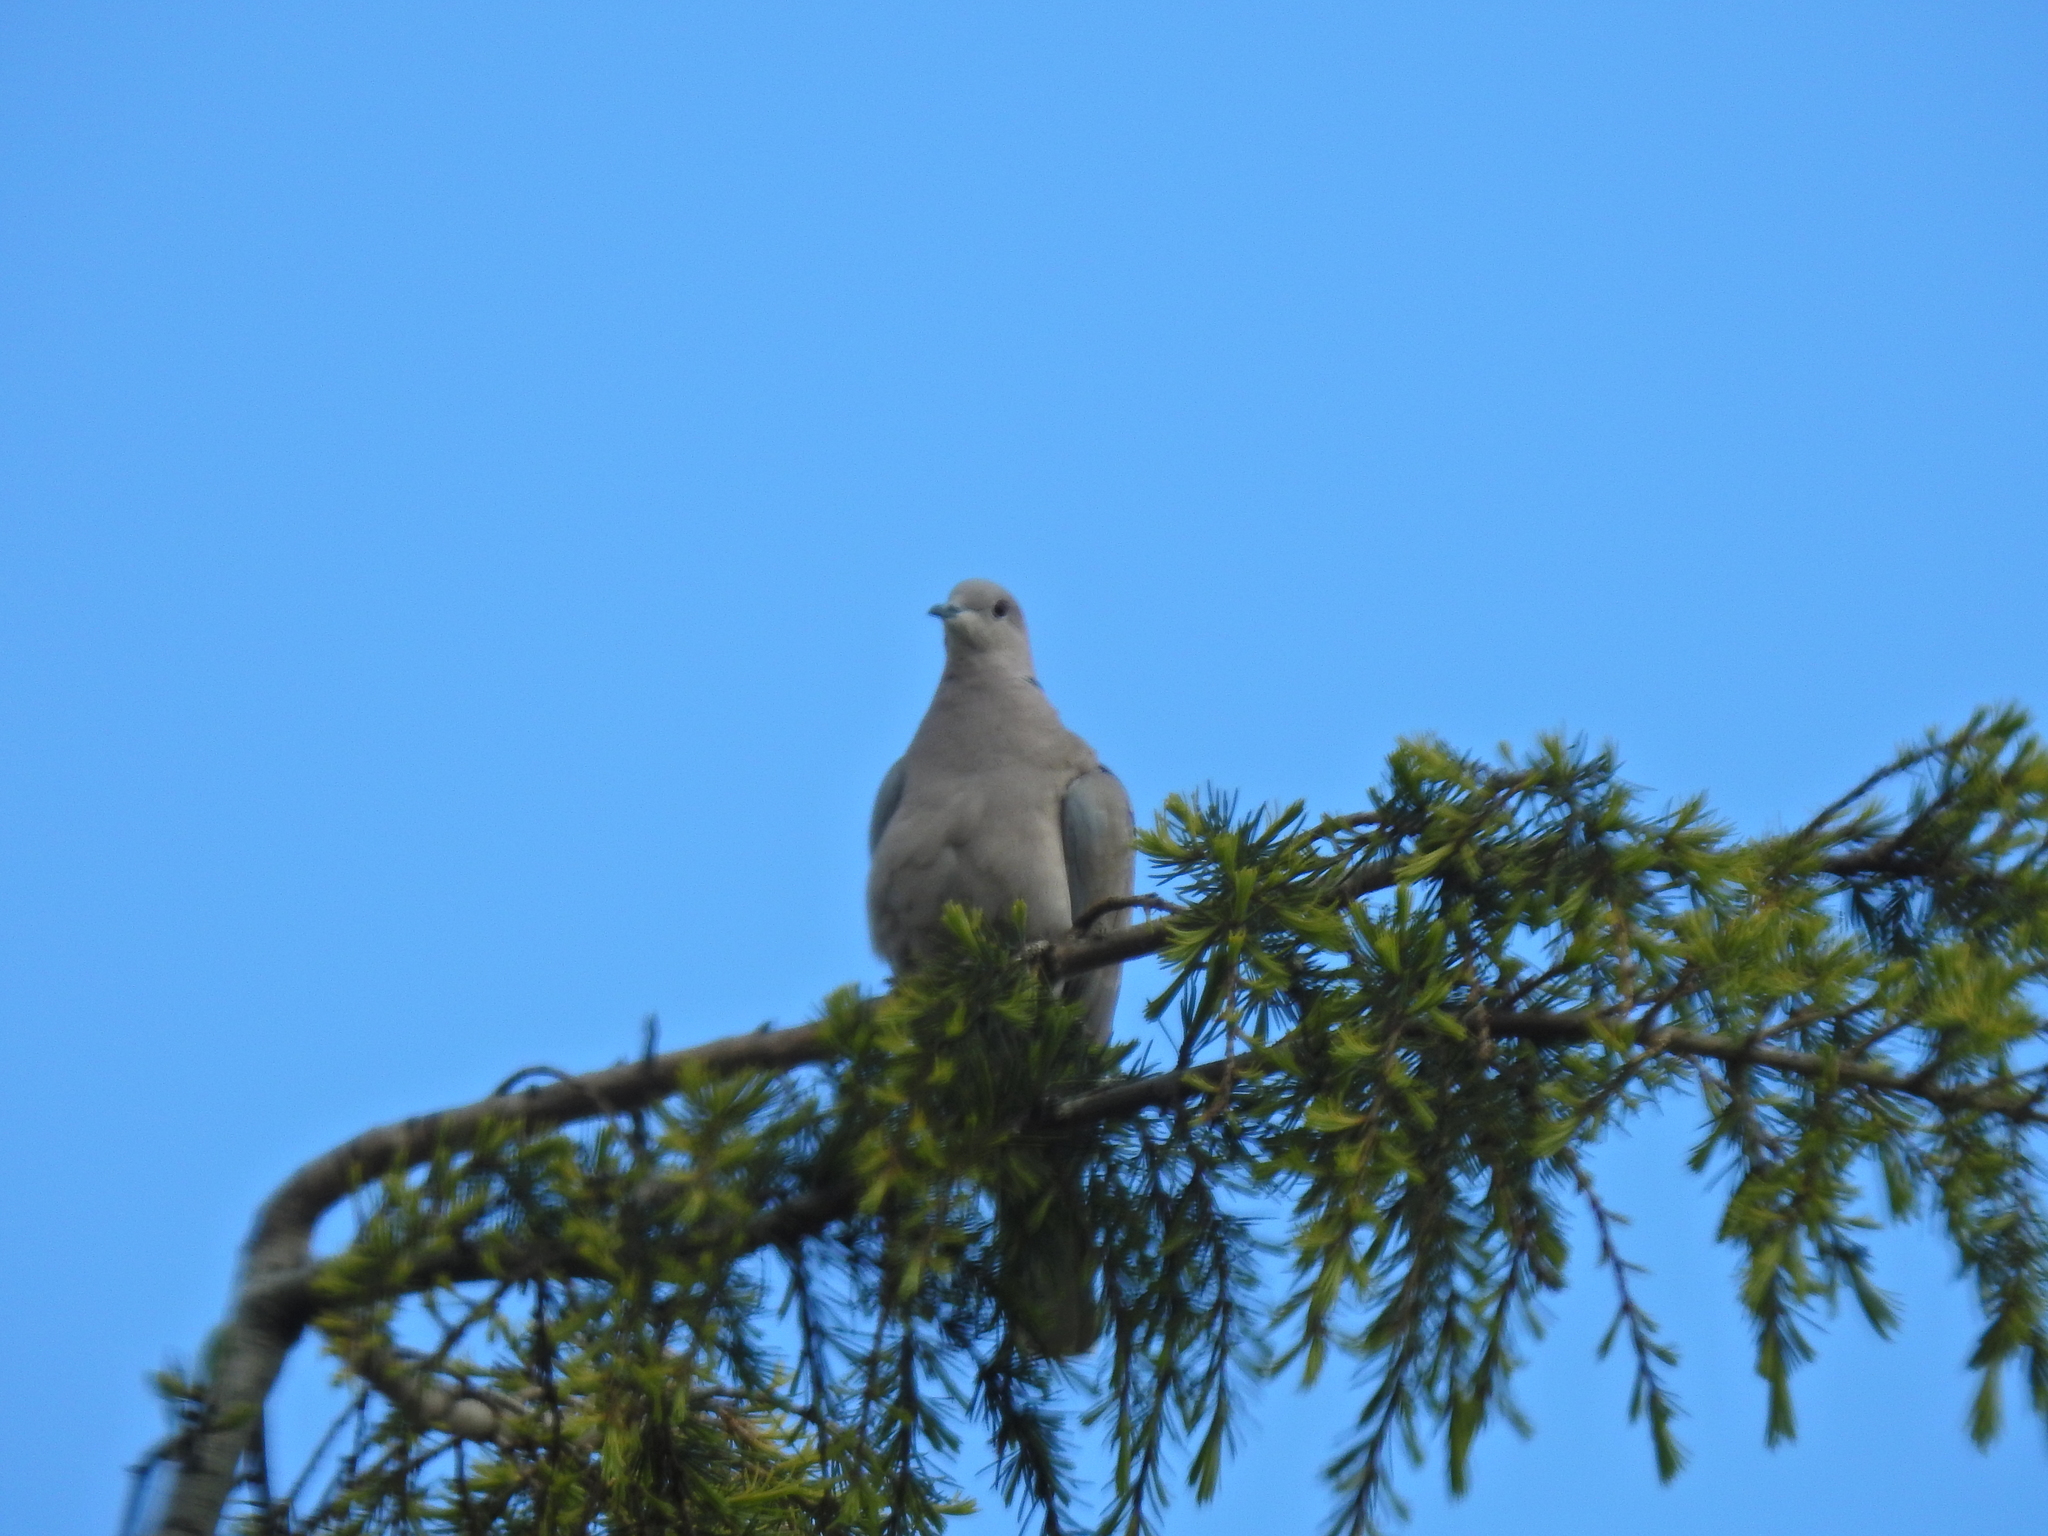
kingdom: Animalia
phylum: Chordata
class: Aves
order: Columbiformes
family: Columbidae
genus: Streptopelia
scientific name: Streptopelia decaocto
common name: Eurasian collared dove
